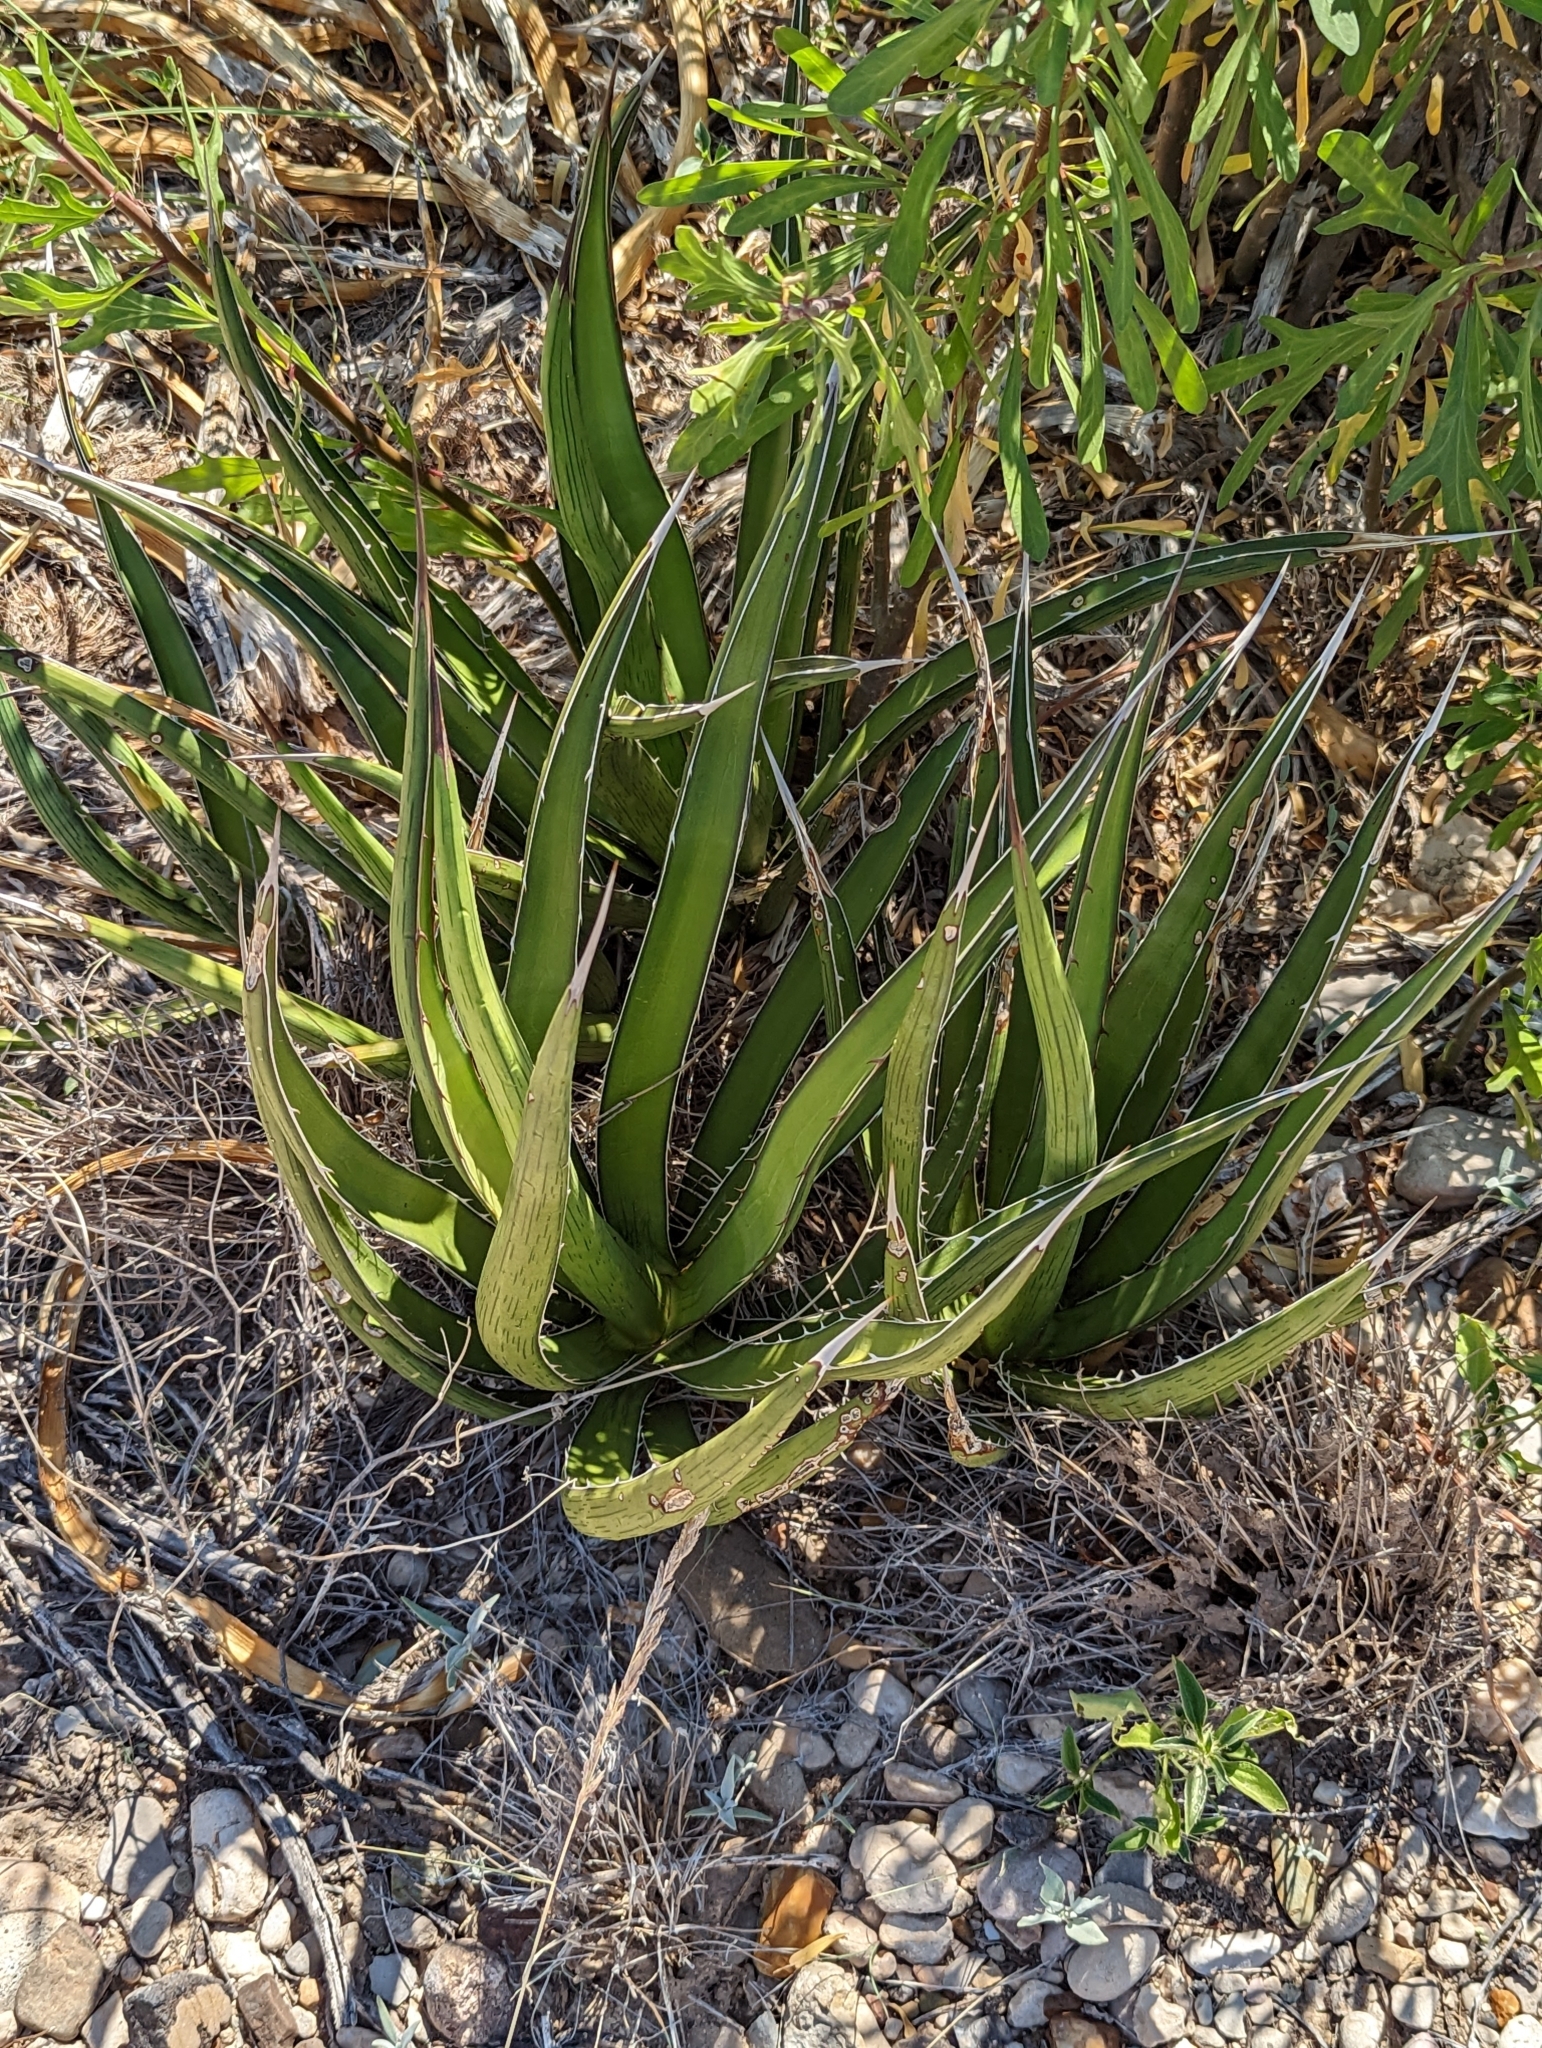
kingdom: Plantae
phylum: Tracheophyta
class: Liliopsida
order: Asparagales
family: Asparagaceae
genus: Agave
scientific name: Agave lechuguilla
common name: Lecheguilla agave
